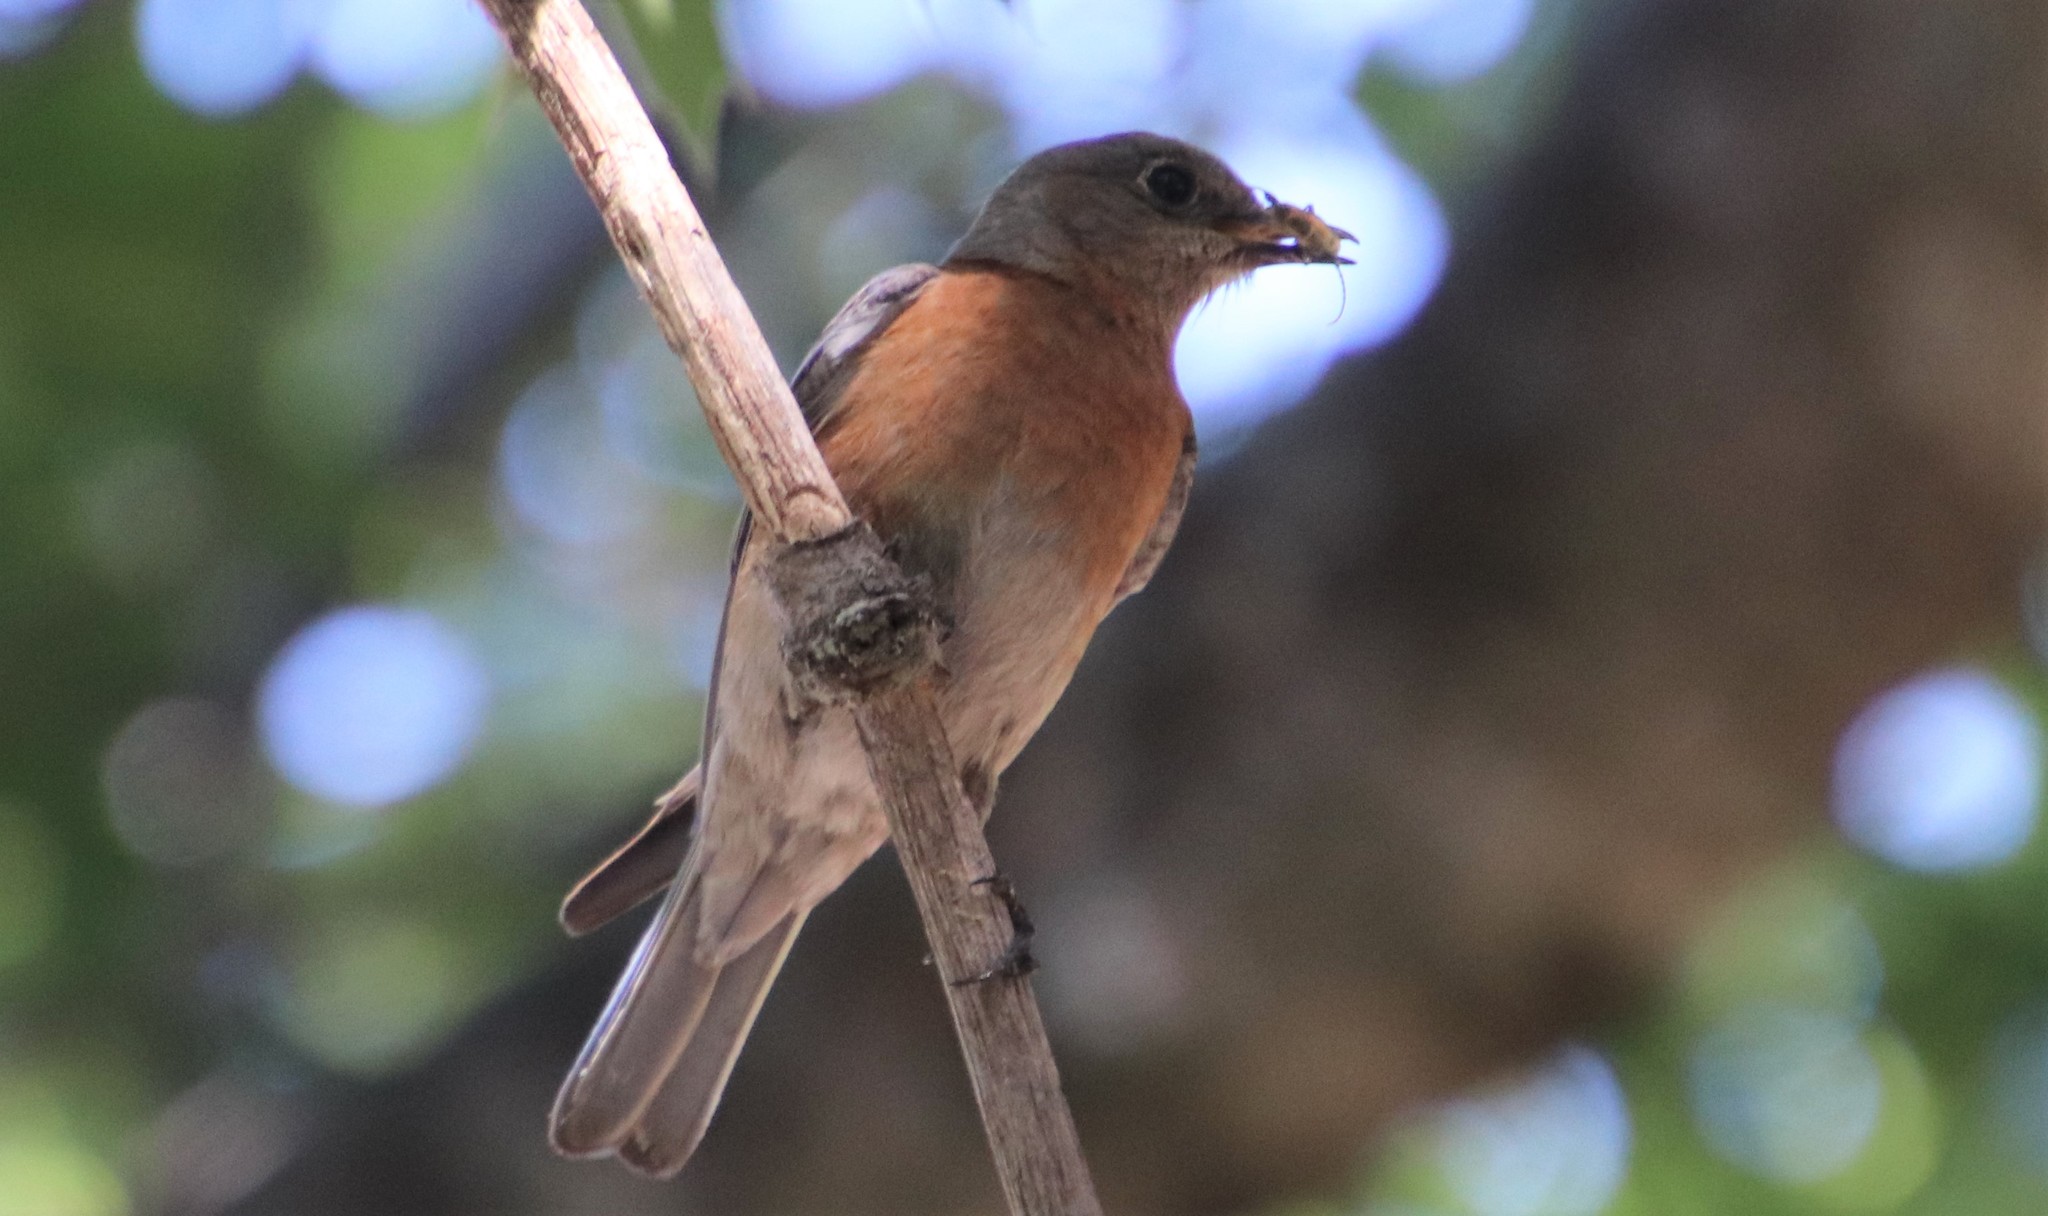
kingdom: Animalia
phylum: Chordata
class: Aves
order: Passeriformes
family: Turdidae
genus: Sialia
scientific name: Sialia mexicana
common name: Western bluebird
